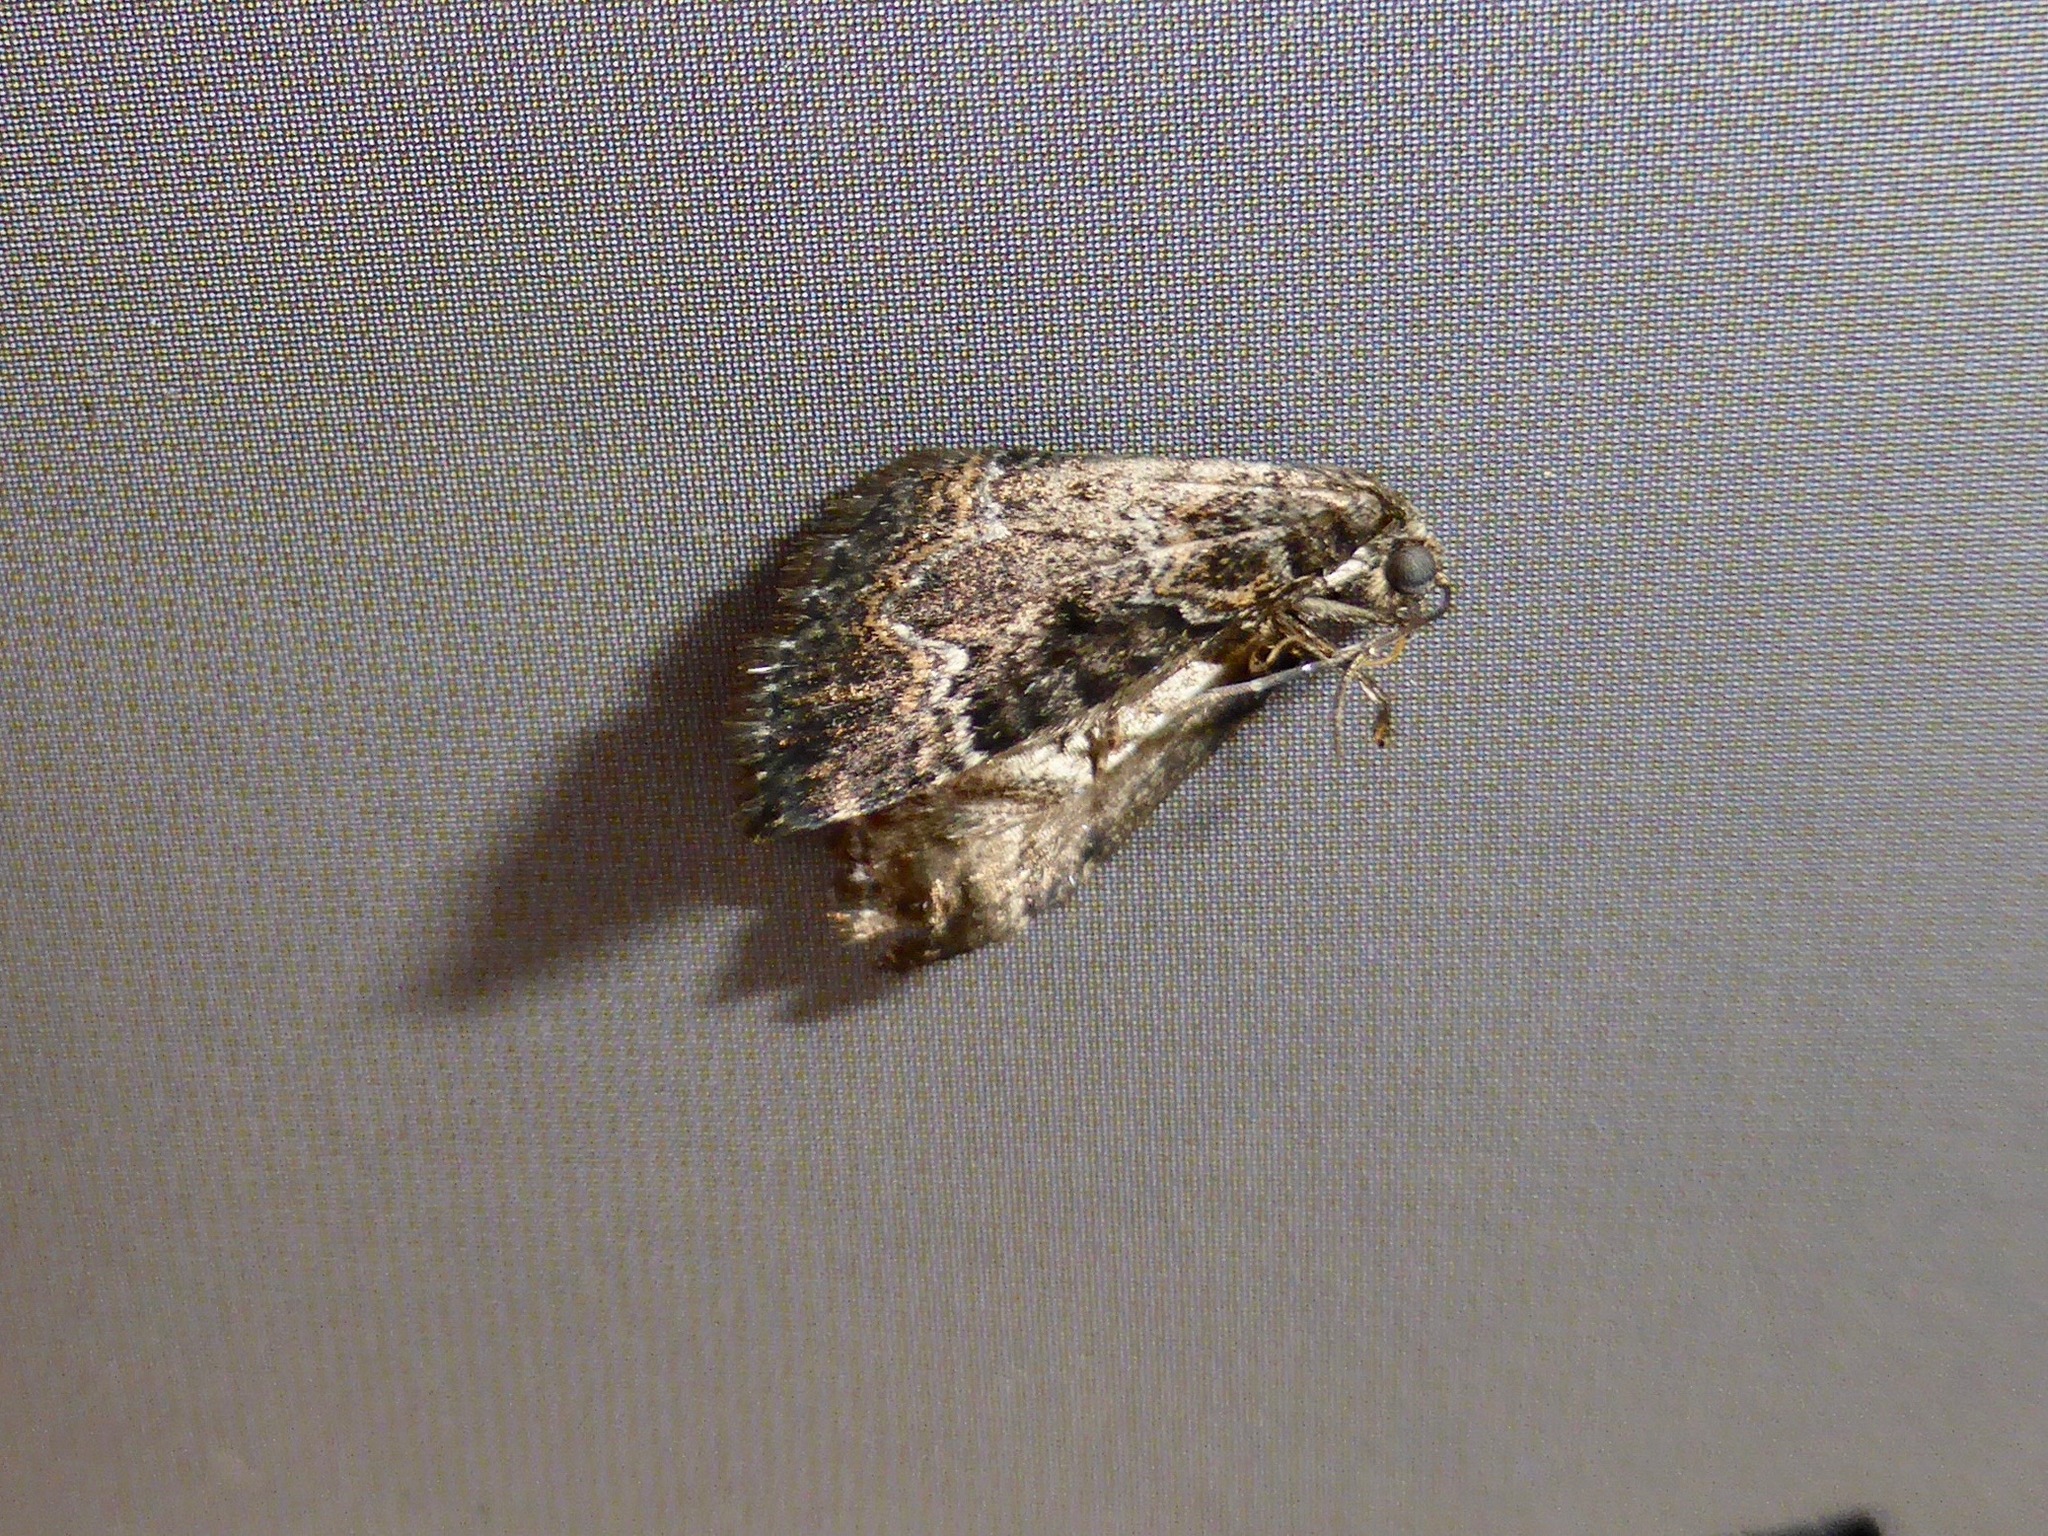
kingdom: Animalia
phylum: Arthropoda
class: Insecta
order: Lepidoptera
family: Geometridae
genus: Hydriomena
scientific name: Hydriomena hemizona
